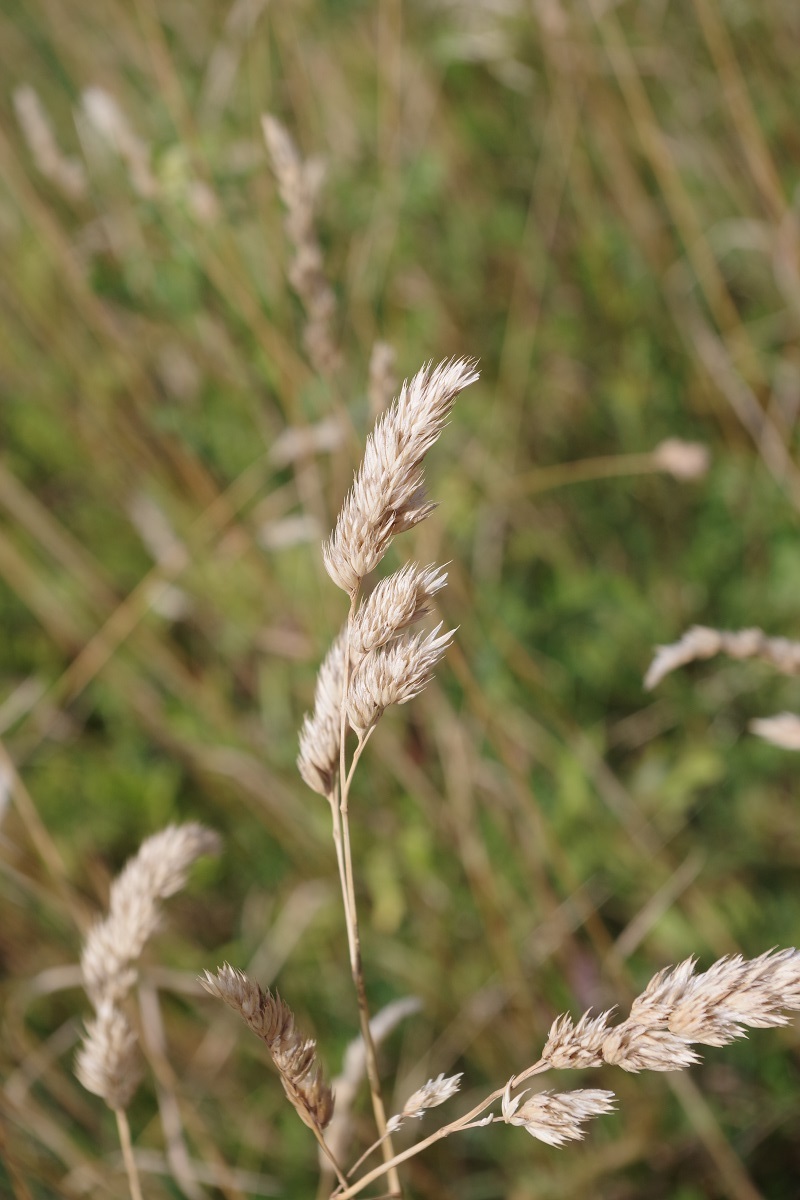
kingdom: Plantae
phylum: Tracheophyta
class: Liliopsida
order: Poales
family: Poaceae
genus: Dactylis
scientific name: Dactylis glomerata
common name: Orchardgrass
